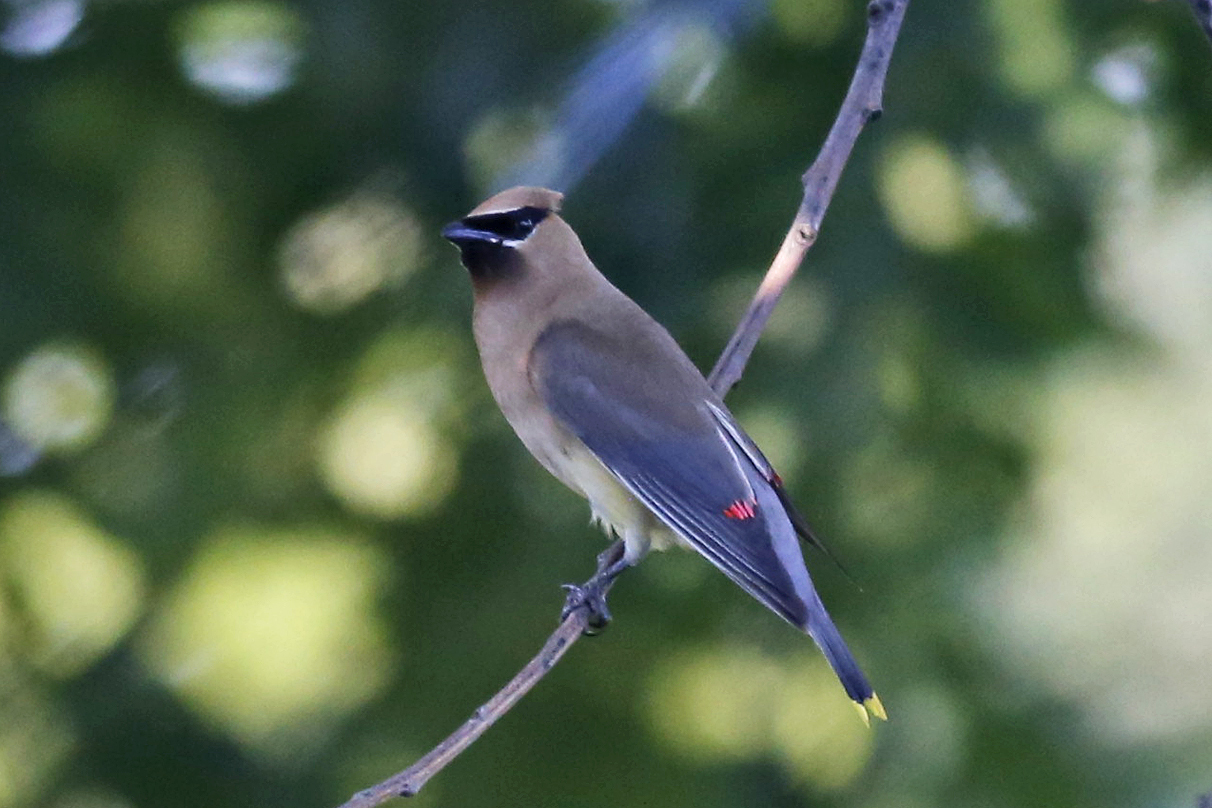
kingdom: Animalia
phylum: Chordata
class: Aves
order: Passeriformes
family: Bombycillidae
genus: Bombycilla
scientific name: Bombycilla cedrorum
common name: Cedar waxwing
